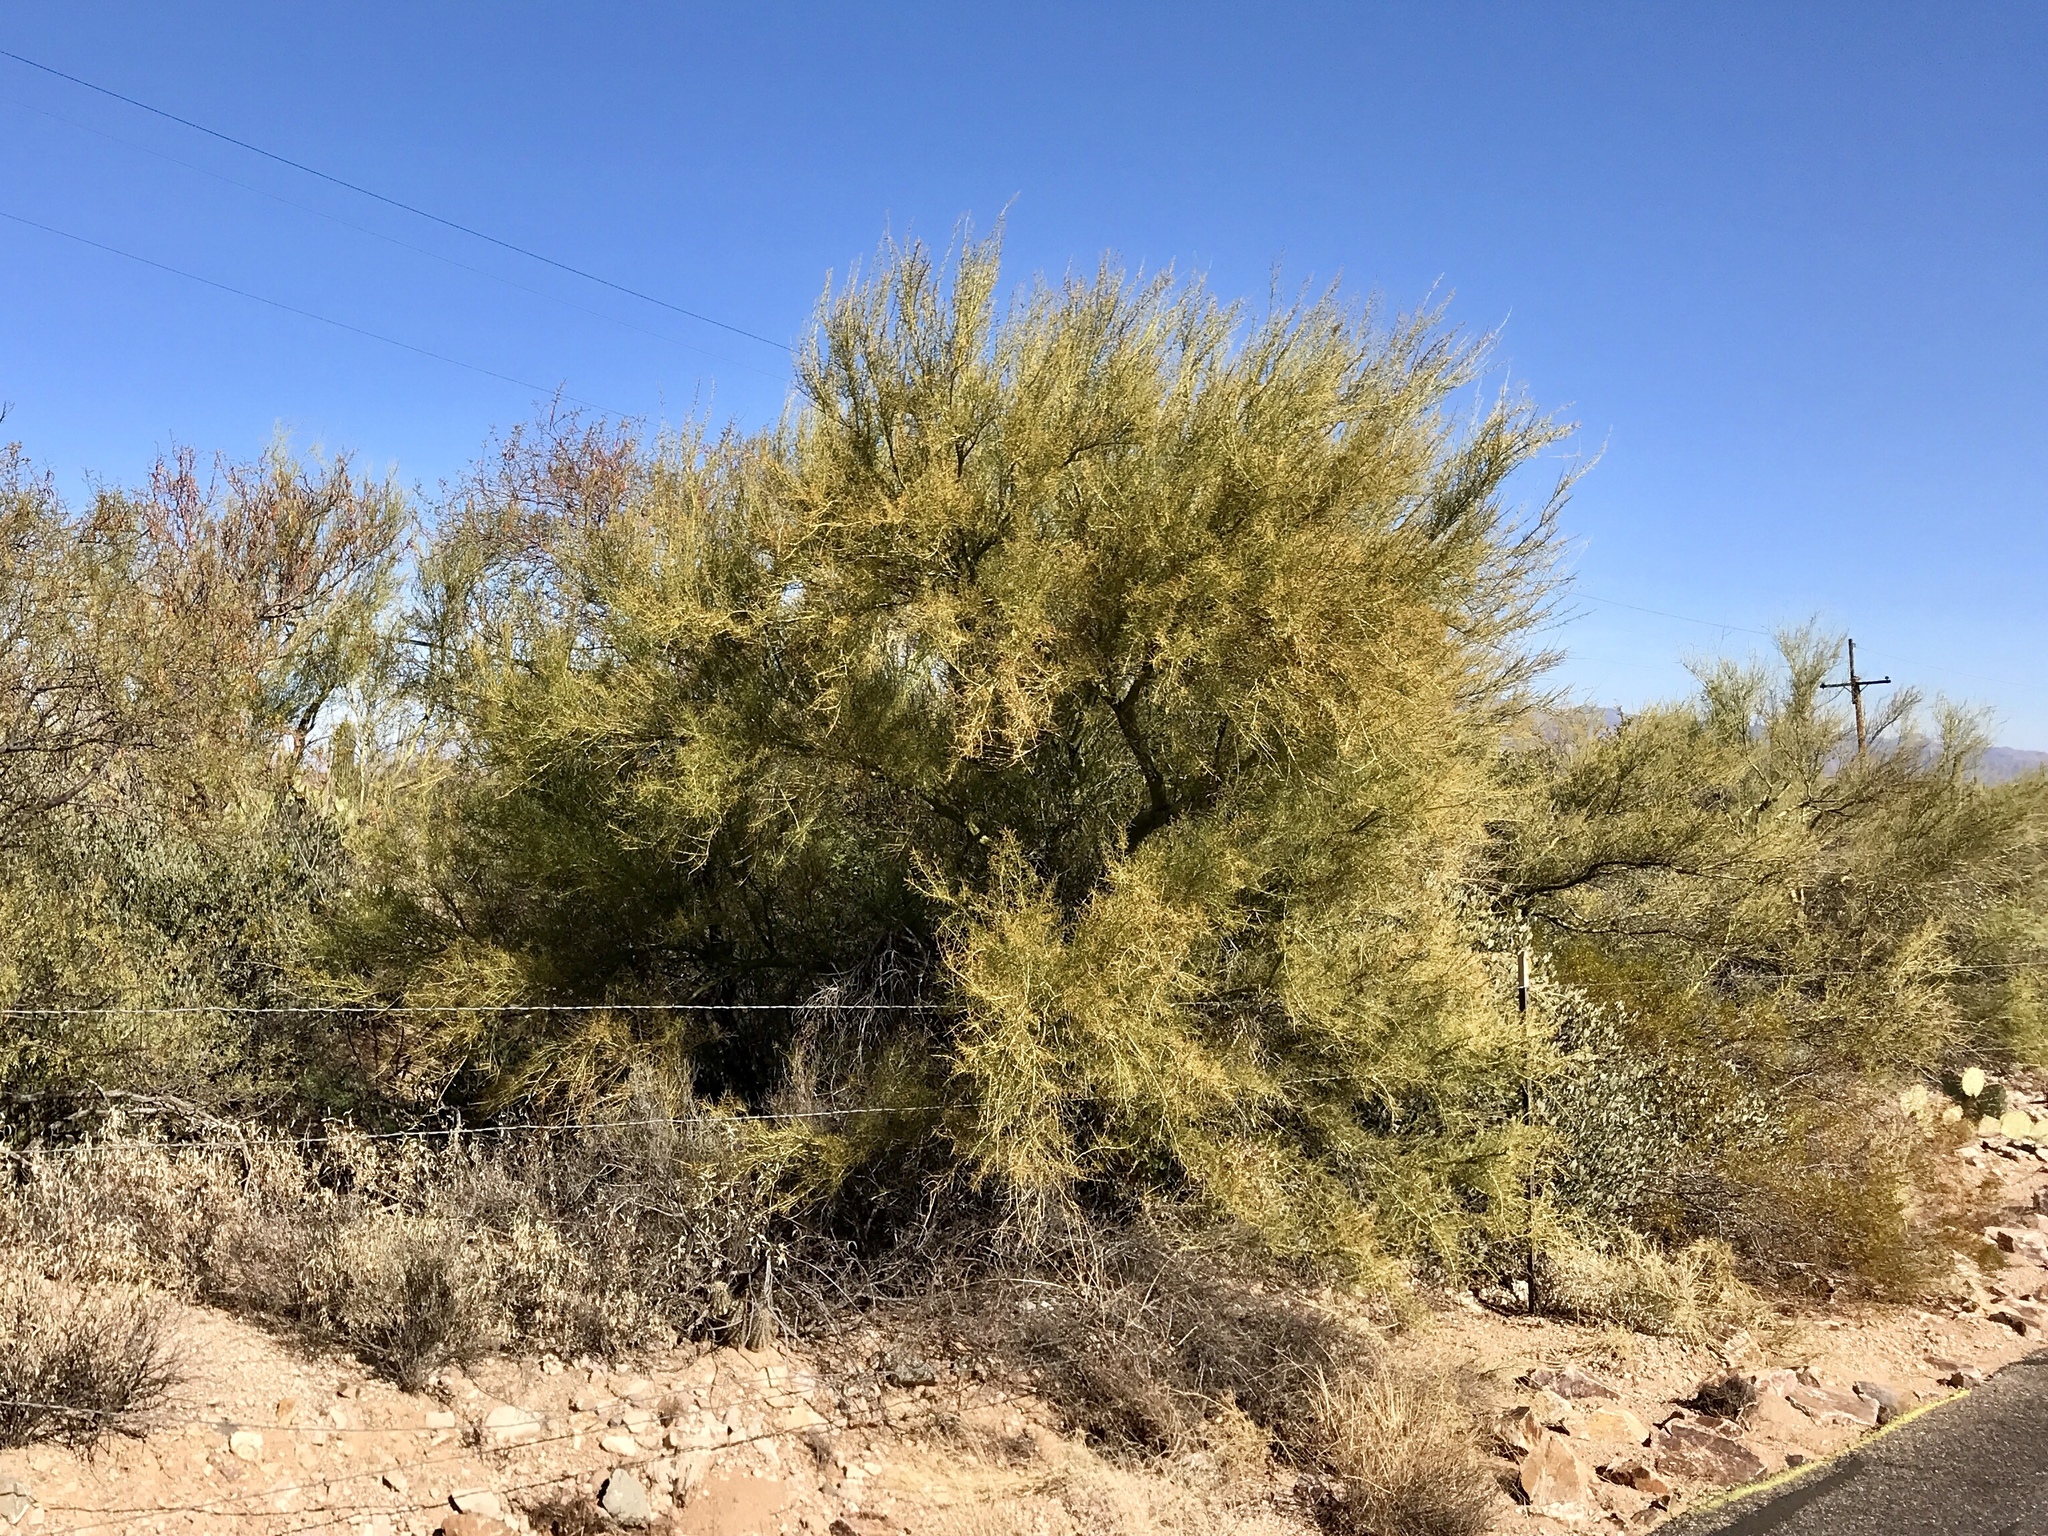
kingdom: Plantae
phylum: Tracheophyta
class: Magnoliopsida
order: Fabales
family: Fabaceae
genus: Parkinsonia
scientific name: Parkinsonia florida
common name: Blue paloverde
